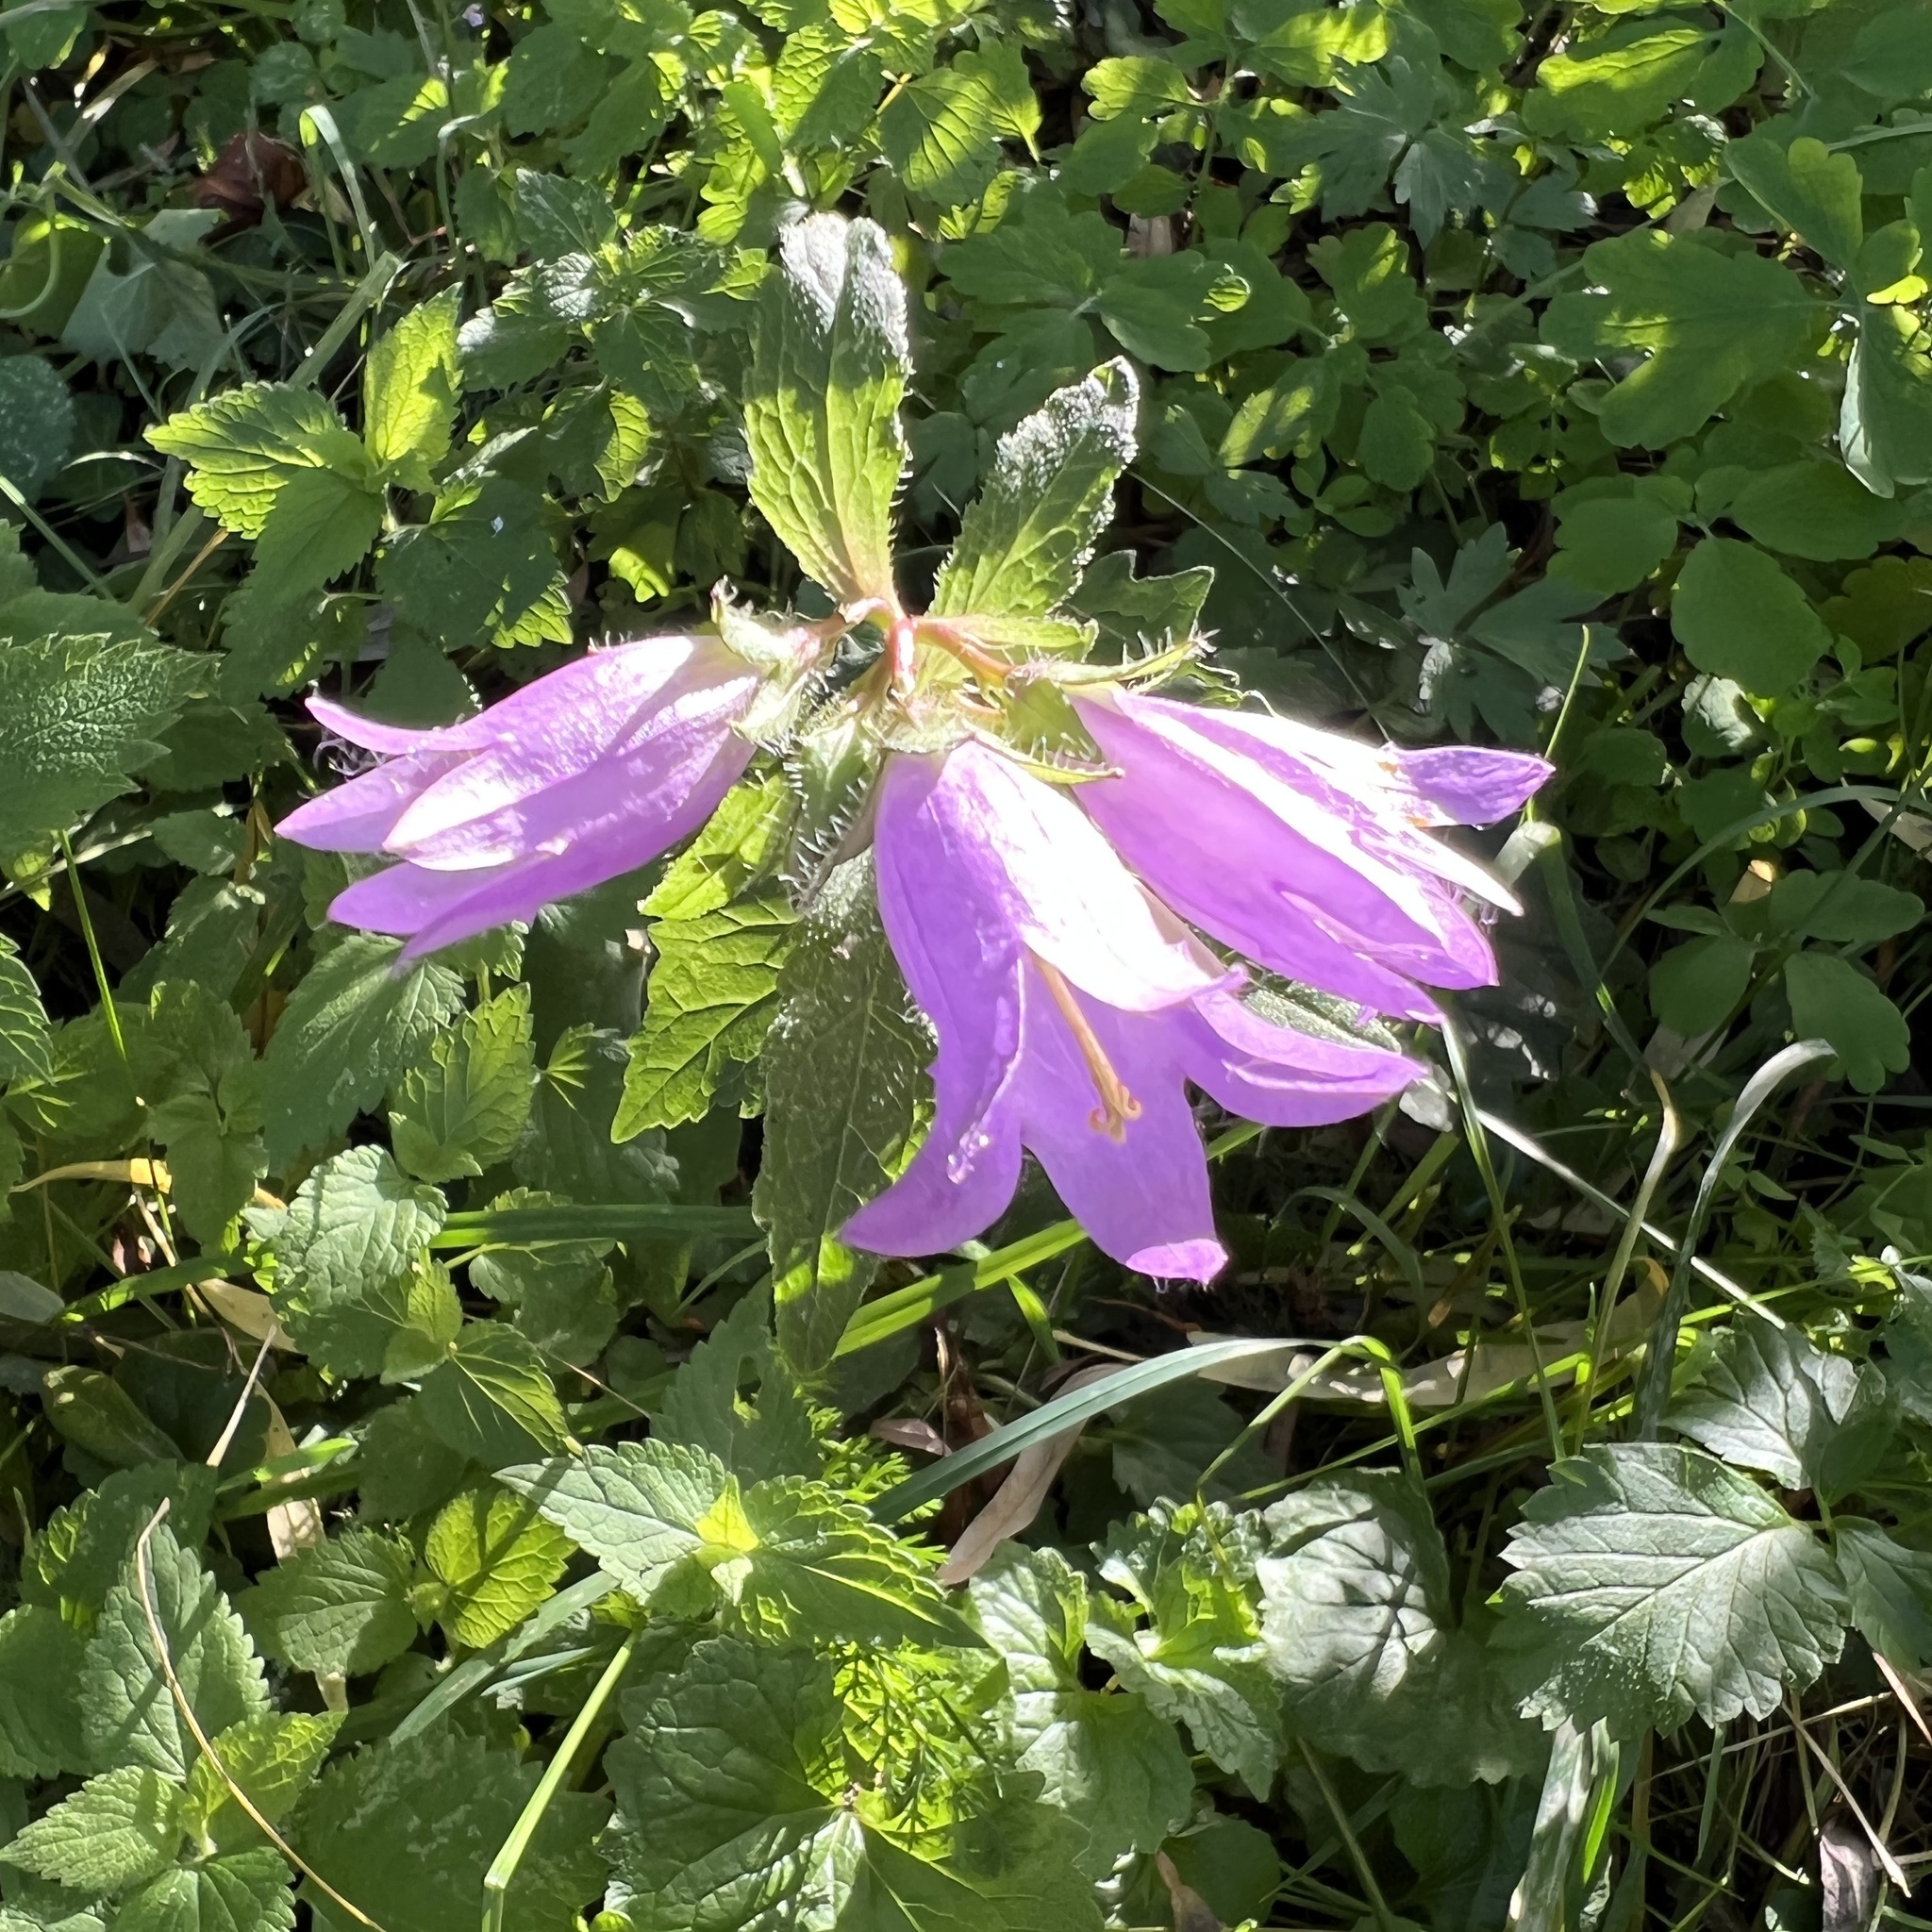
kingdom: Plantae
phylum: Tracheophyta
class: Magnoliopsida
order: Asterales
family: Campanulaceae
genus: Campanula
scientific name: Campanula trachelium
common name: Nettle-leaved bellflower
